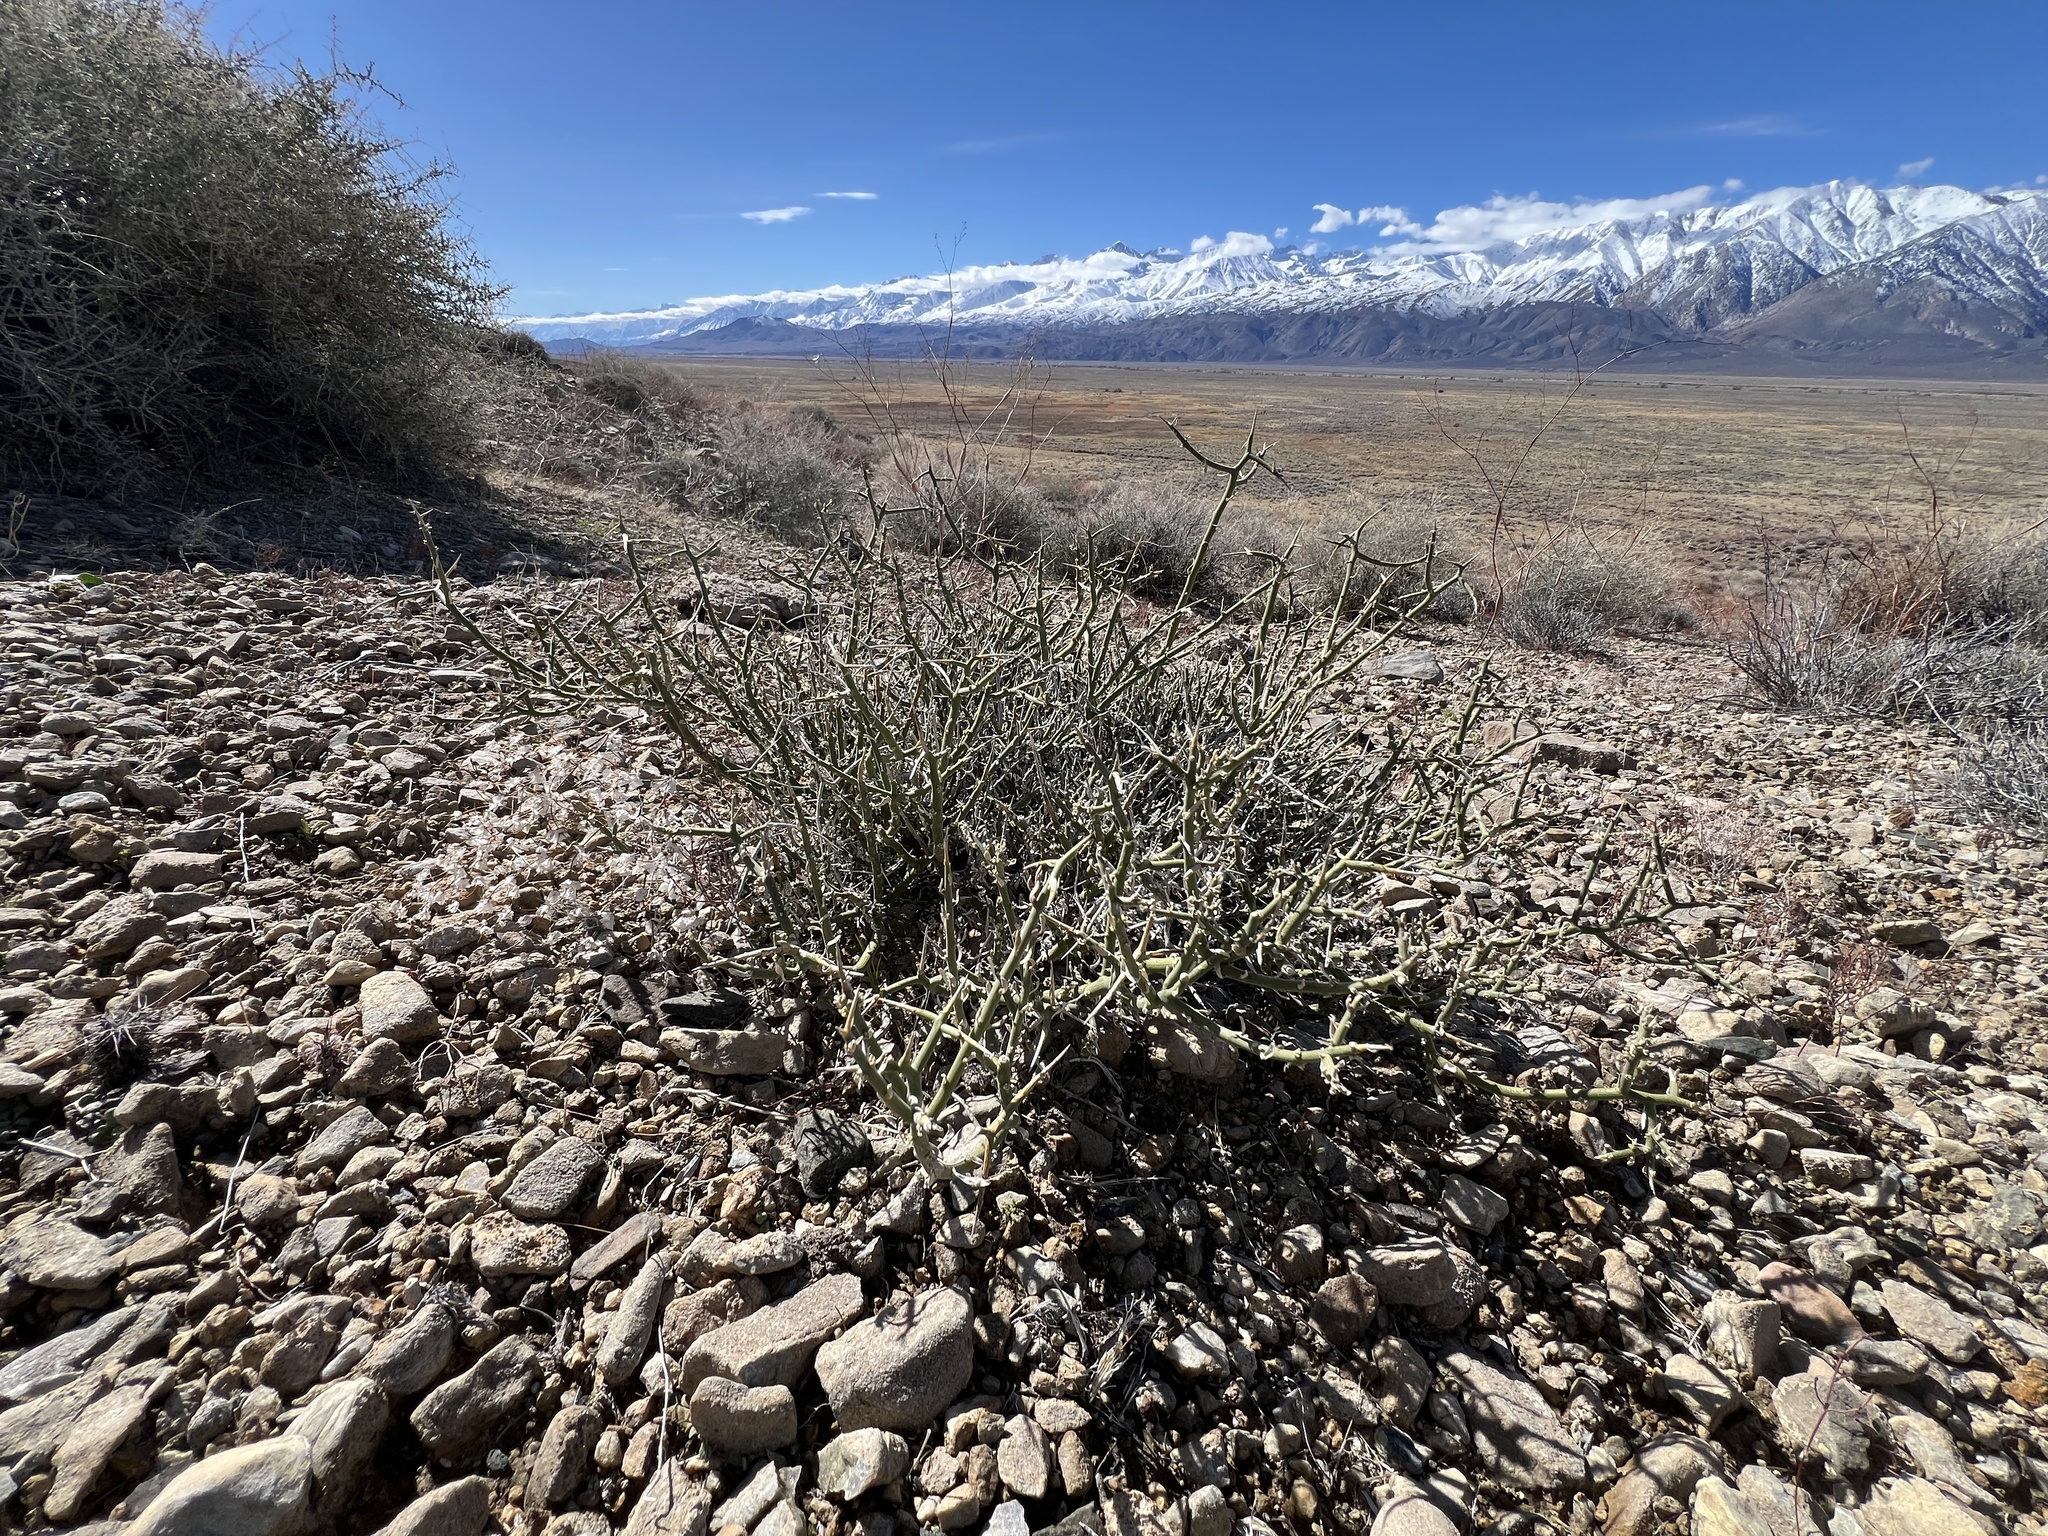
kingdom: Plantae
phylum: Tracheophyta
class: Magnoliopsida
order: Lamiales
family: Oleaceae
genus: Menodora
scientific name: Menodora spinescens
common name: Spiny menodora
